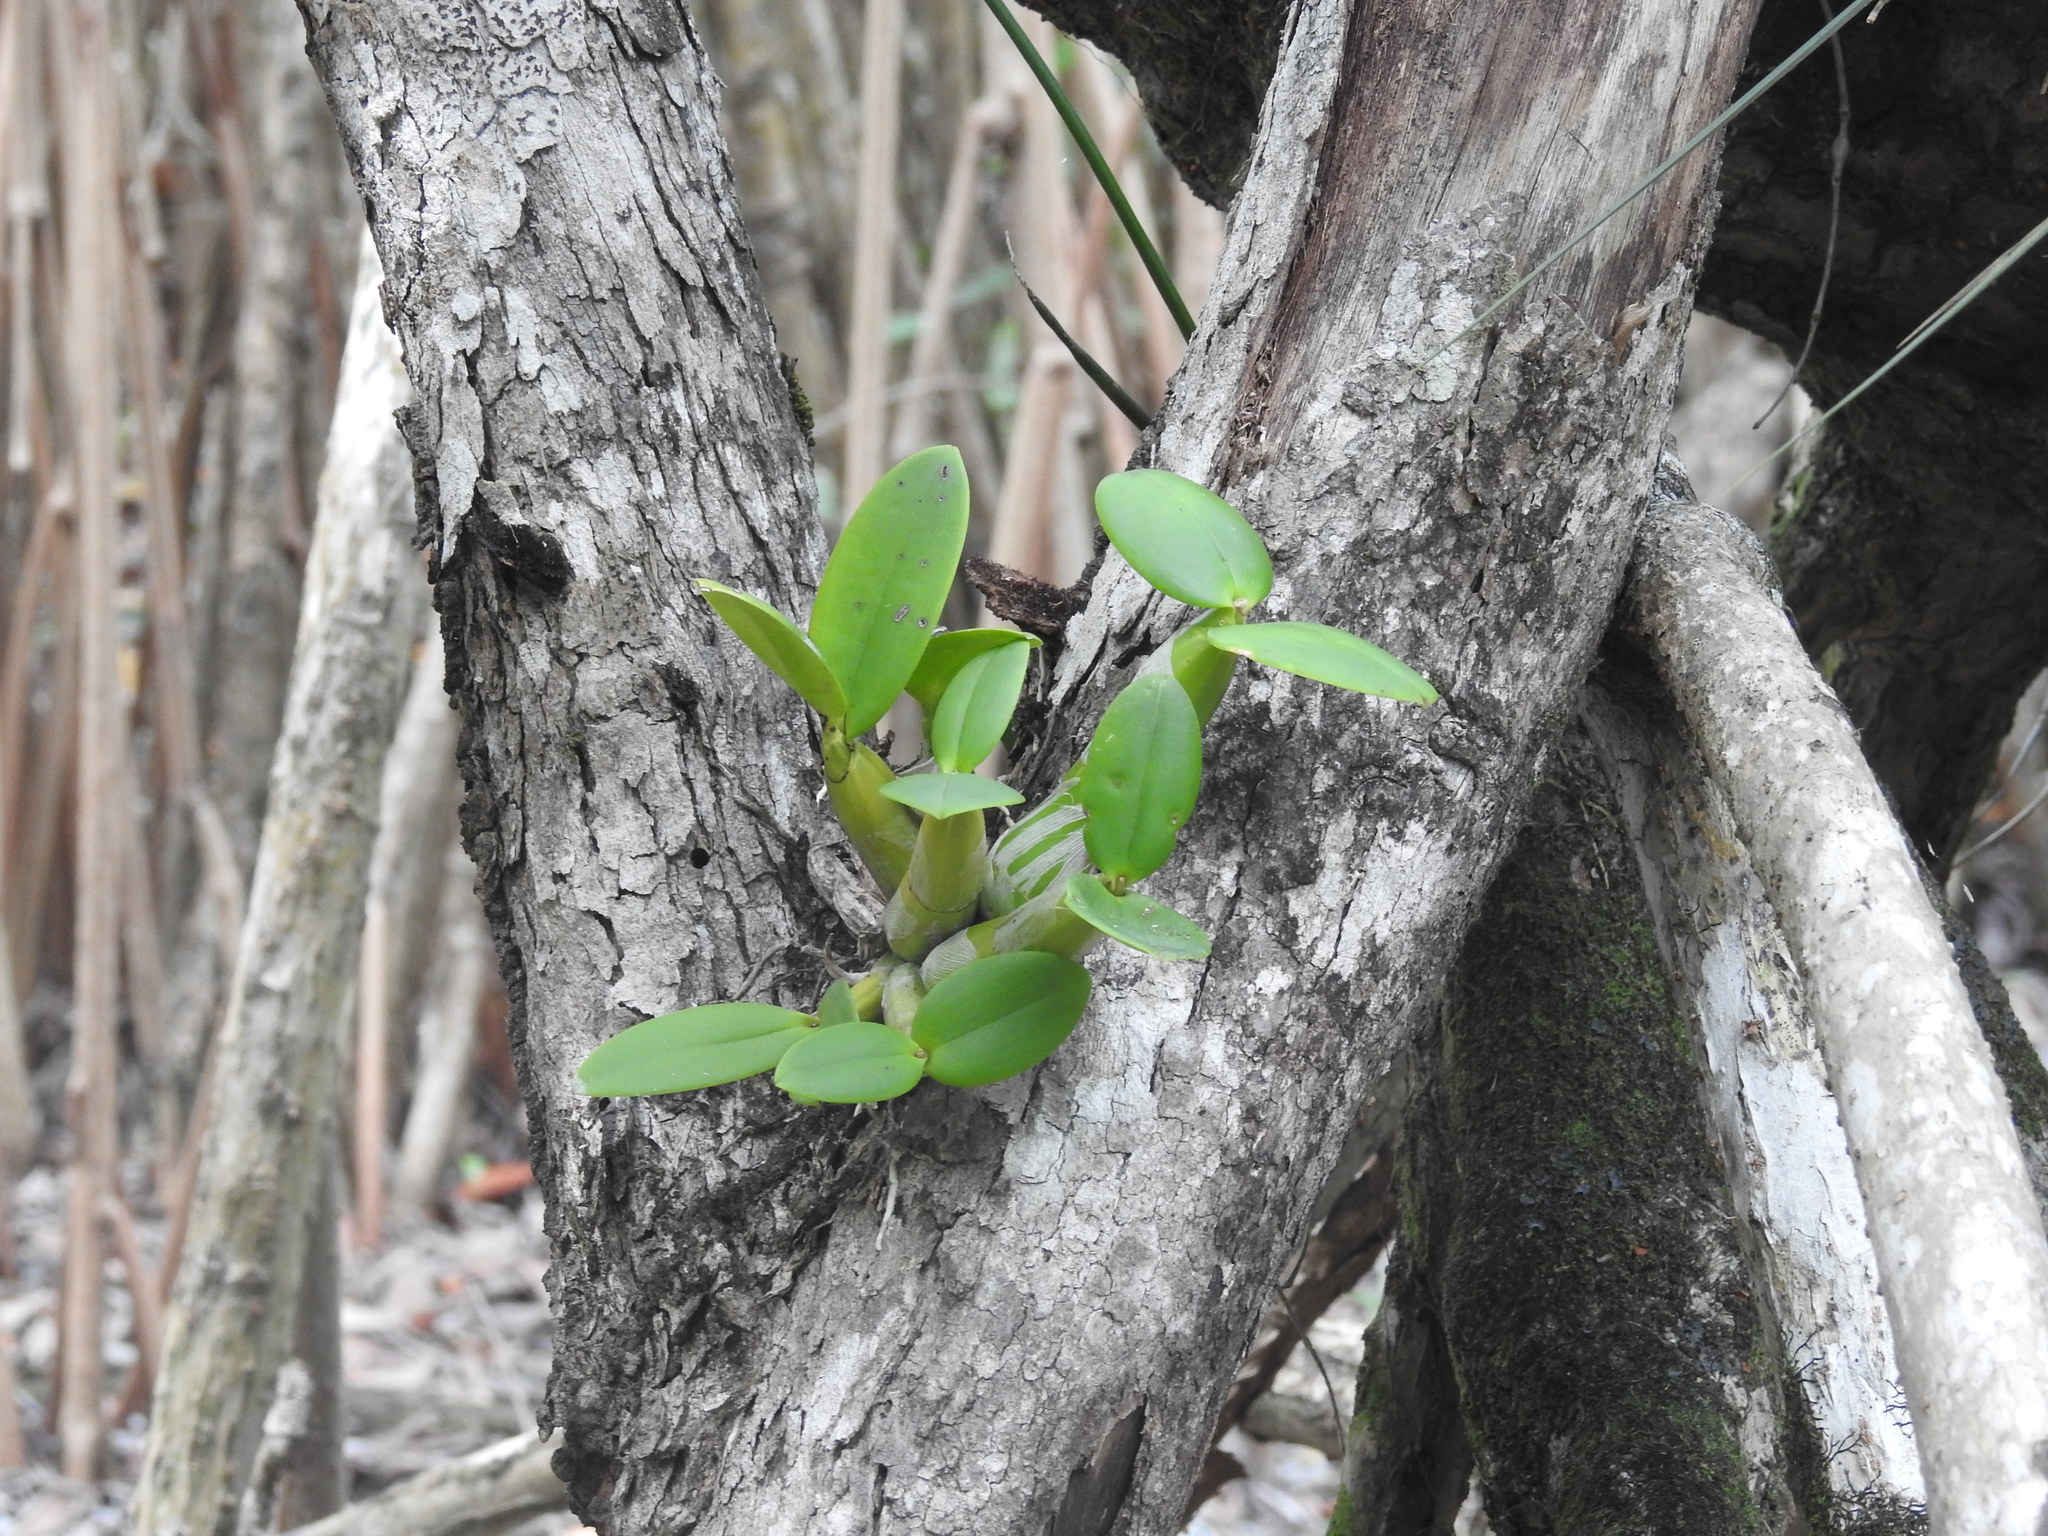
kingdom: Plantae
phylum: Tracheophyta
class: Liliopsida
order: Asparagales
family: Orchidaceae
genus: Myrmecophila
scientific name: Myrmecophila christinae
